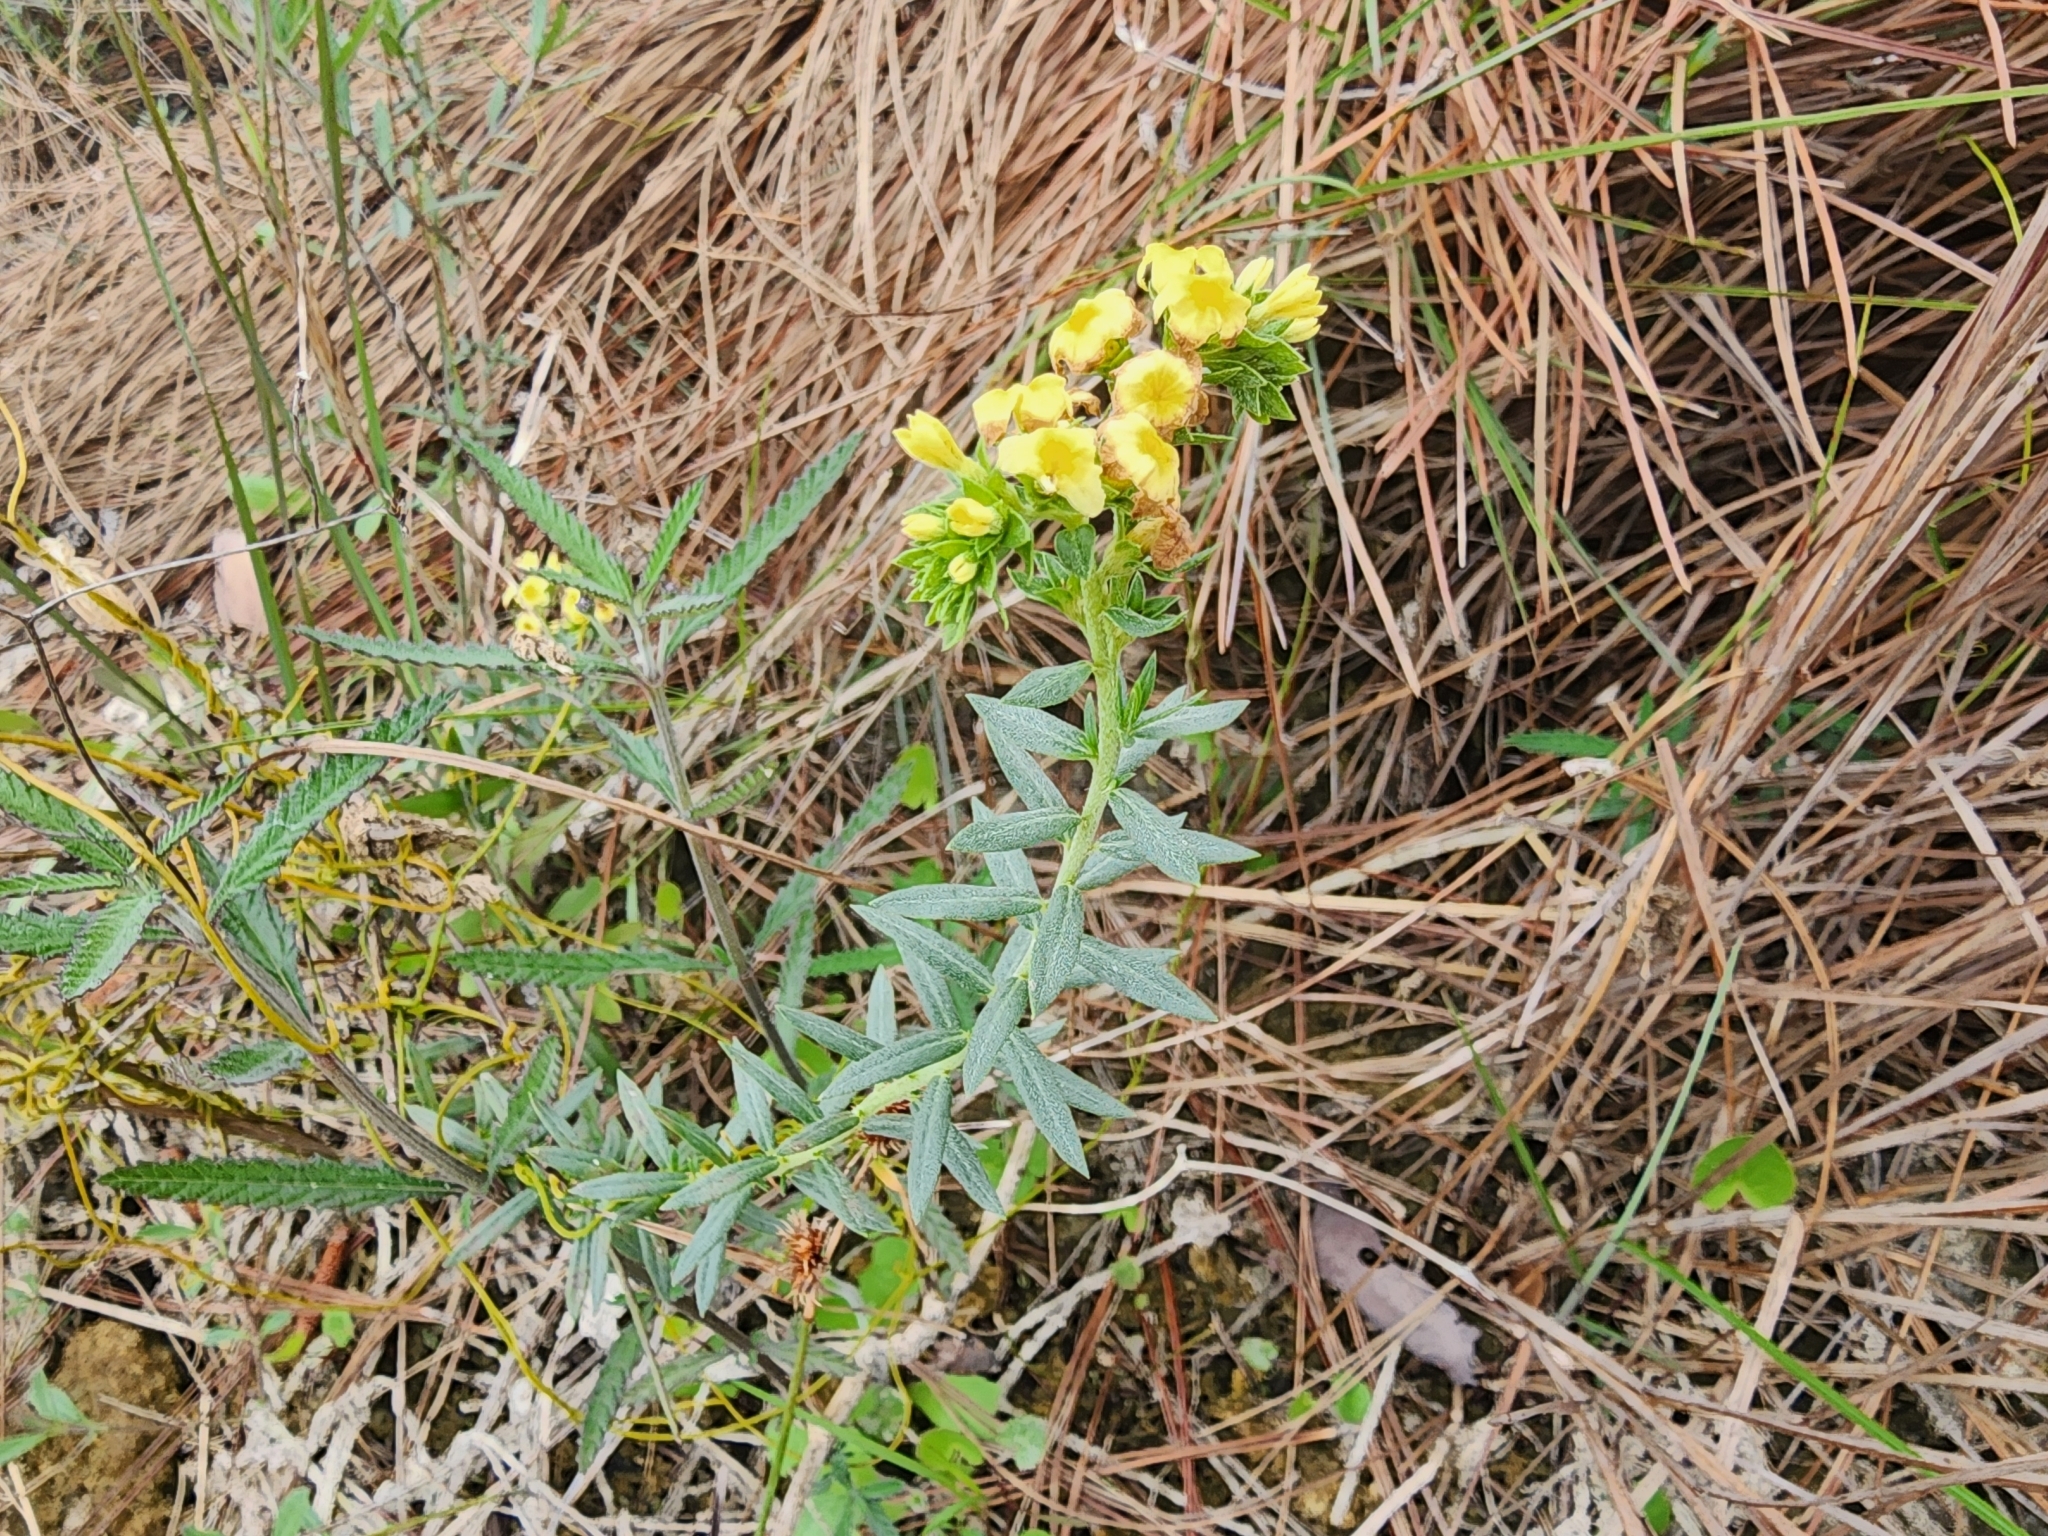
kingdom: Plantae
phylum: Tracheophyta
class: Magnoliopsida
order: Boraginales
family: Heliotropiaceae
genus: Euploca
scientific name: Euploca polyphylla
